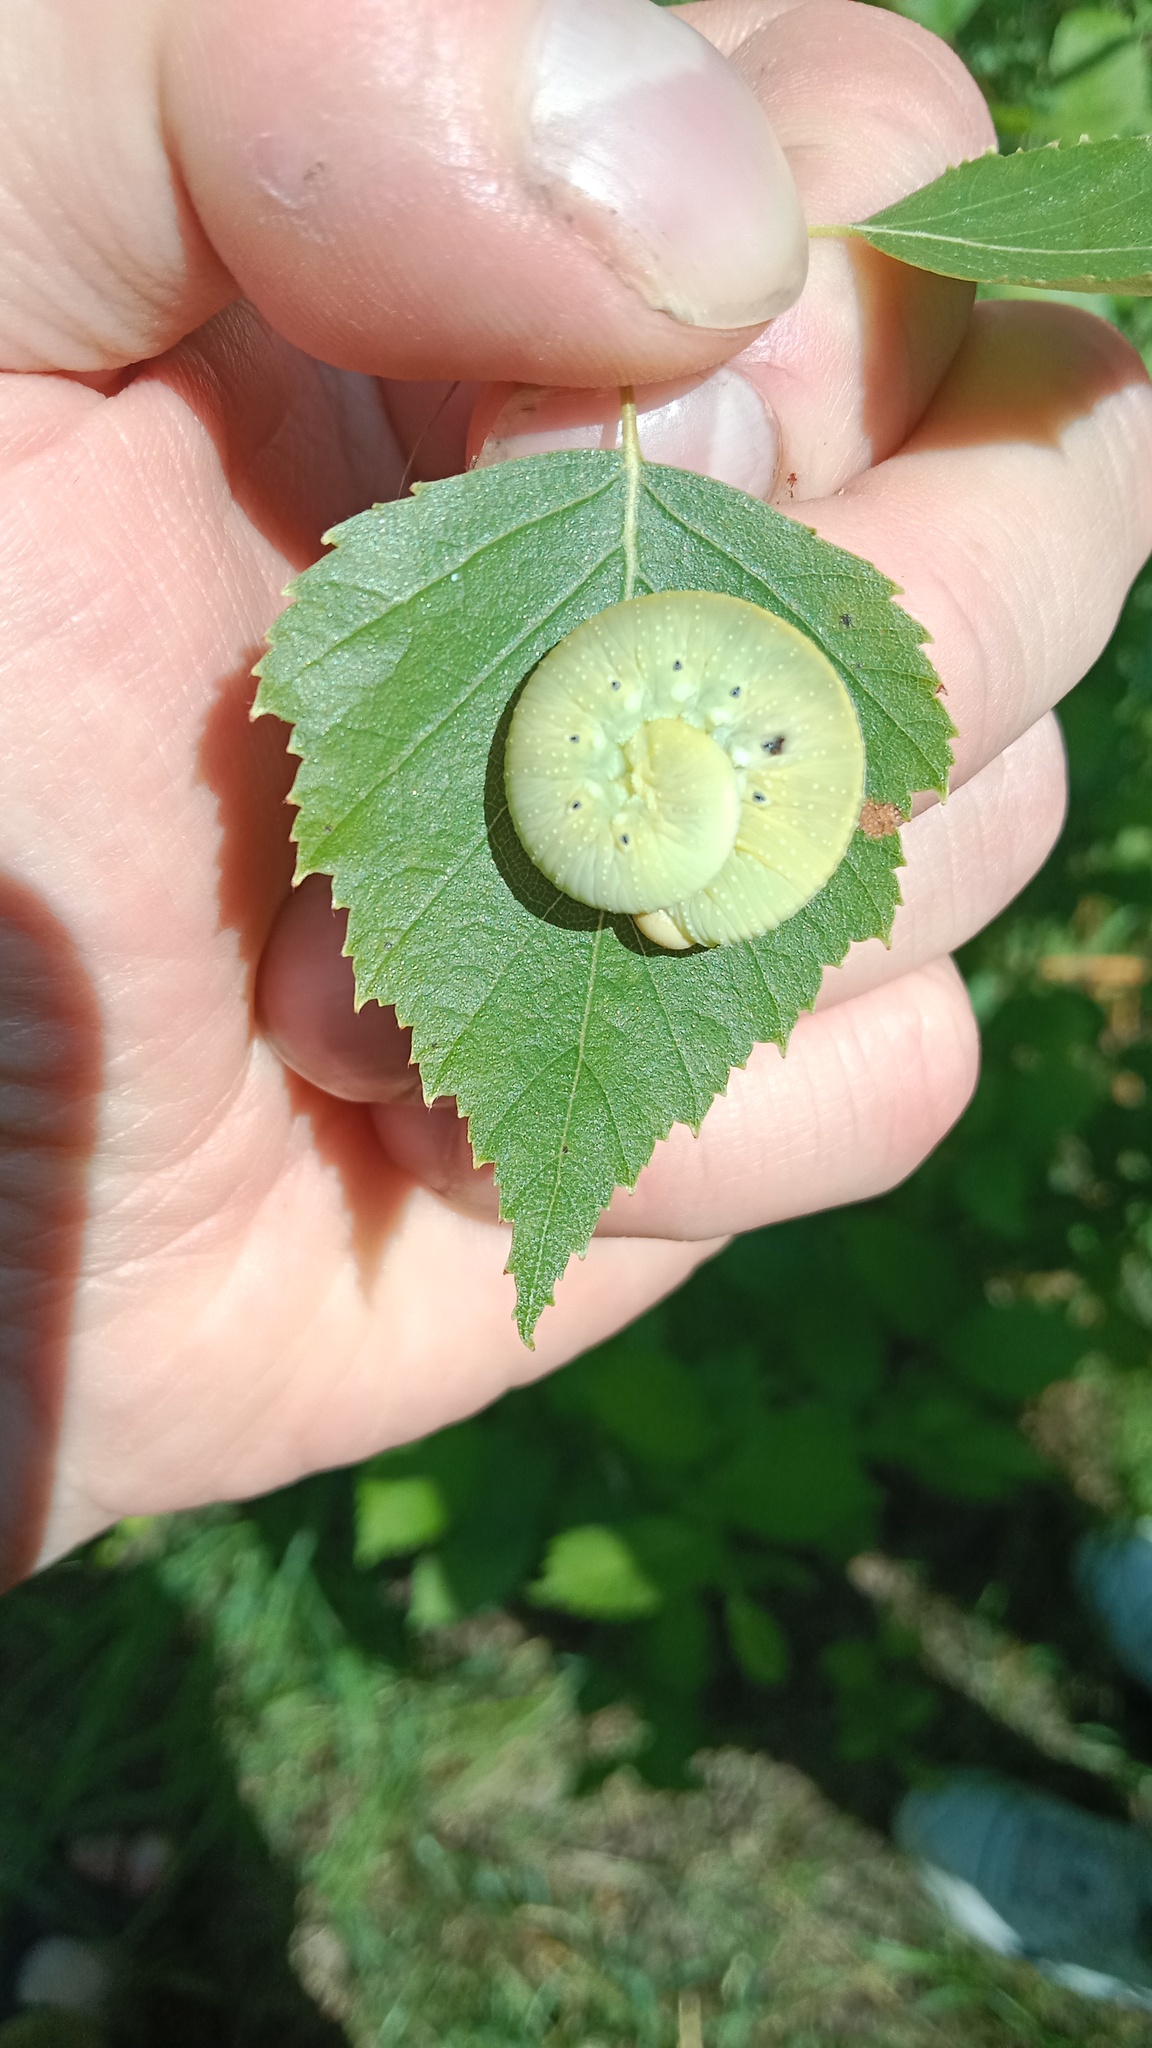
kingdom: Animalia
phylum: Arthropoda
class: Insecta
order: Hymenoptera
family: Cimbicidae
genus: Cimbex
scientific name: Cimbex femoratus
